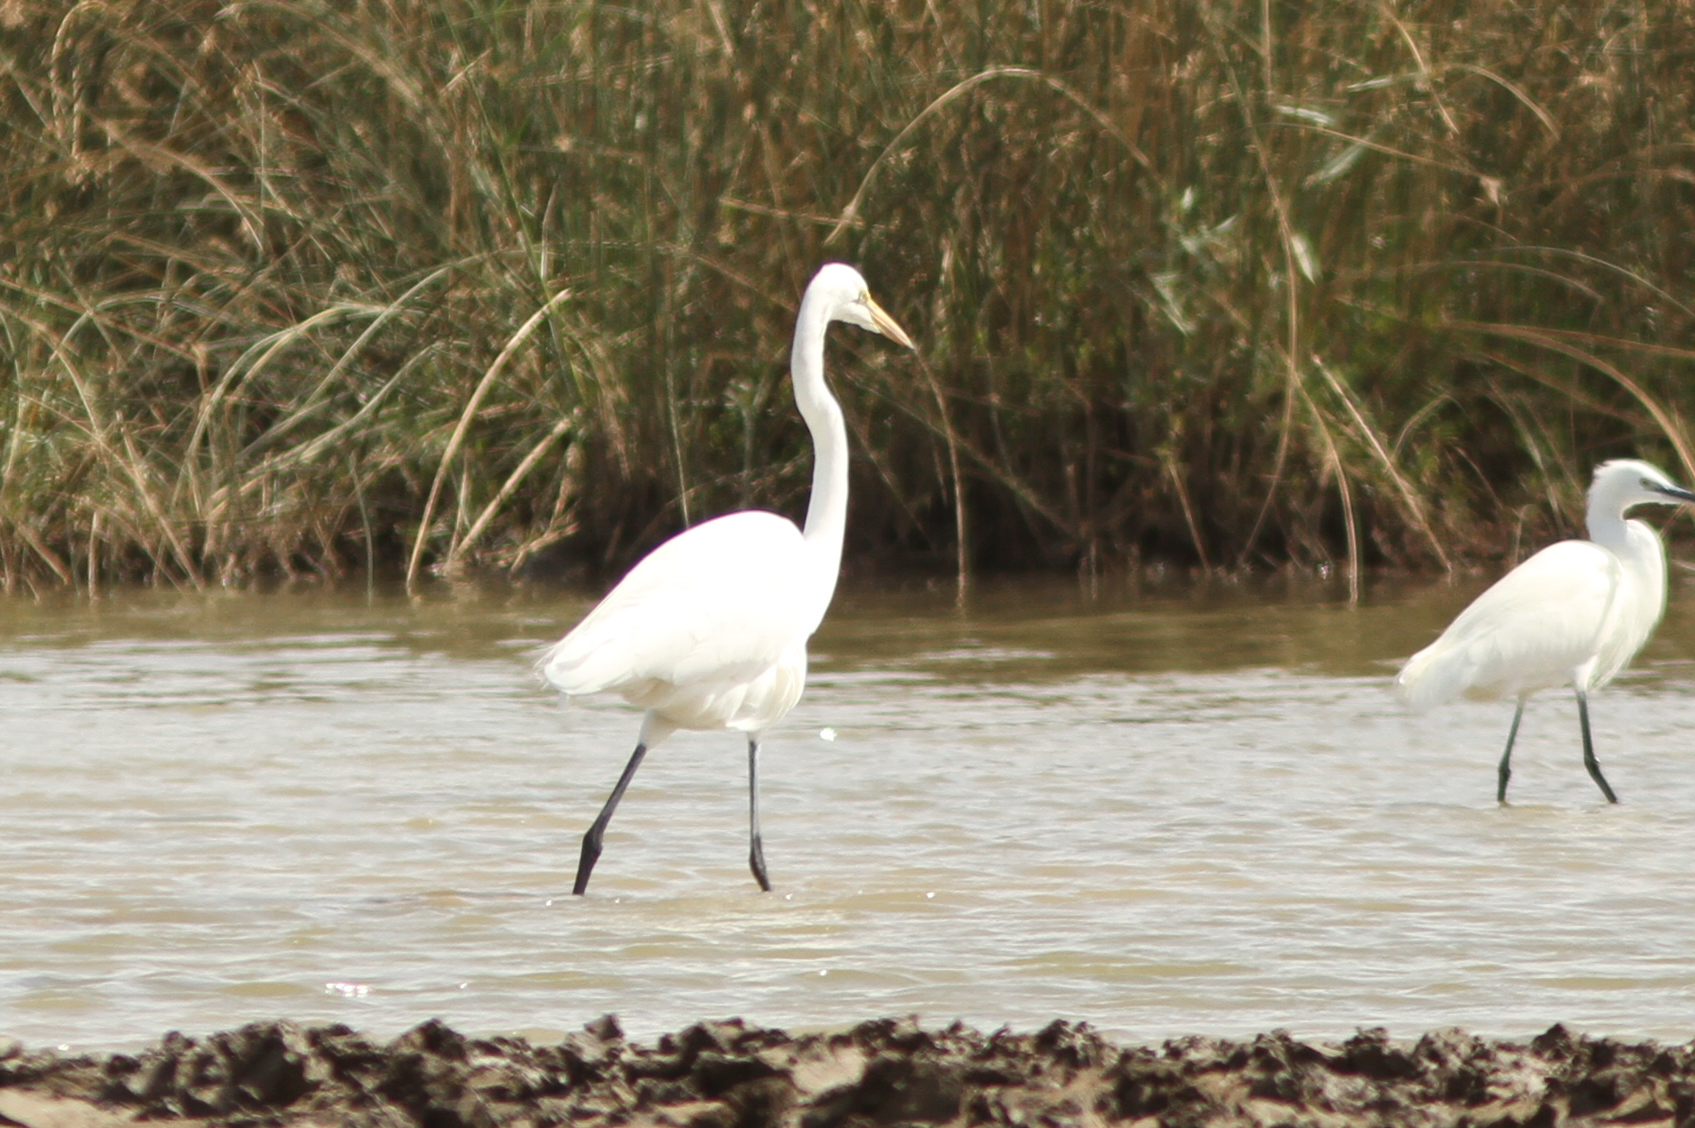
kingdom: Animalia
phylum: Chordata
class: Aves
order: Pelecaniformes
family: Ardeidae
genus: Ardea
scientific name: Ardea alba
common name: Great egret
